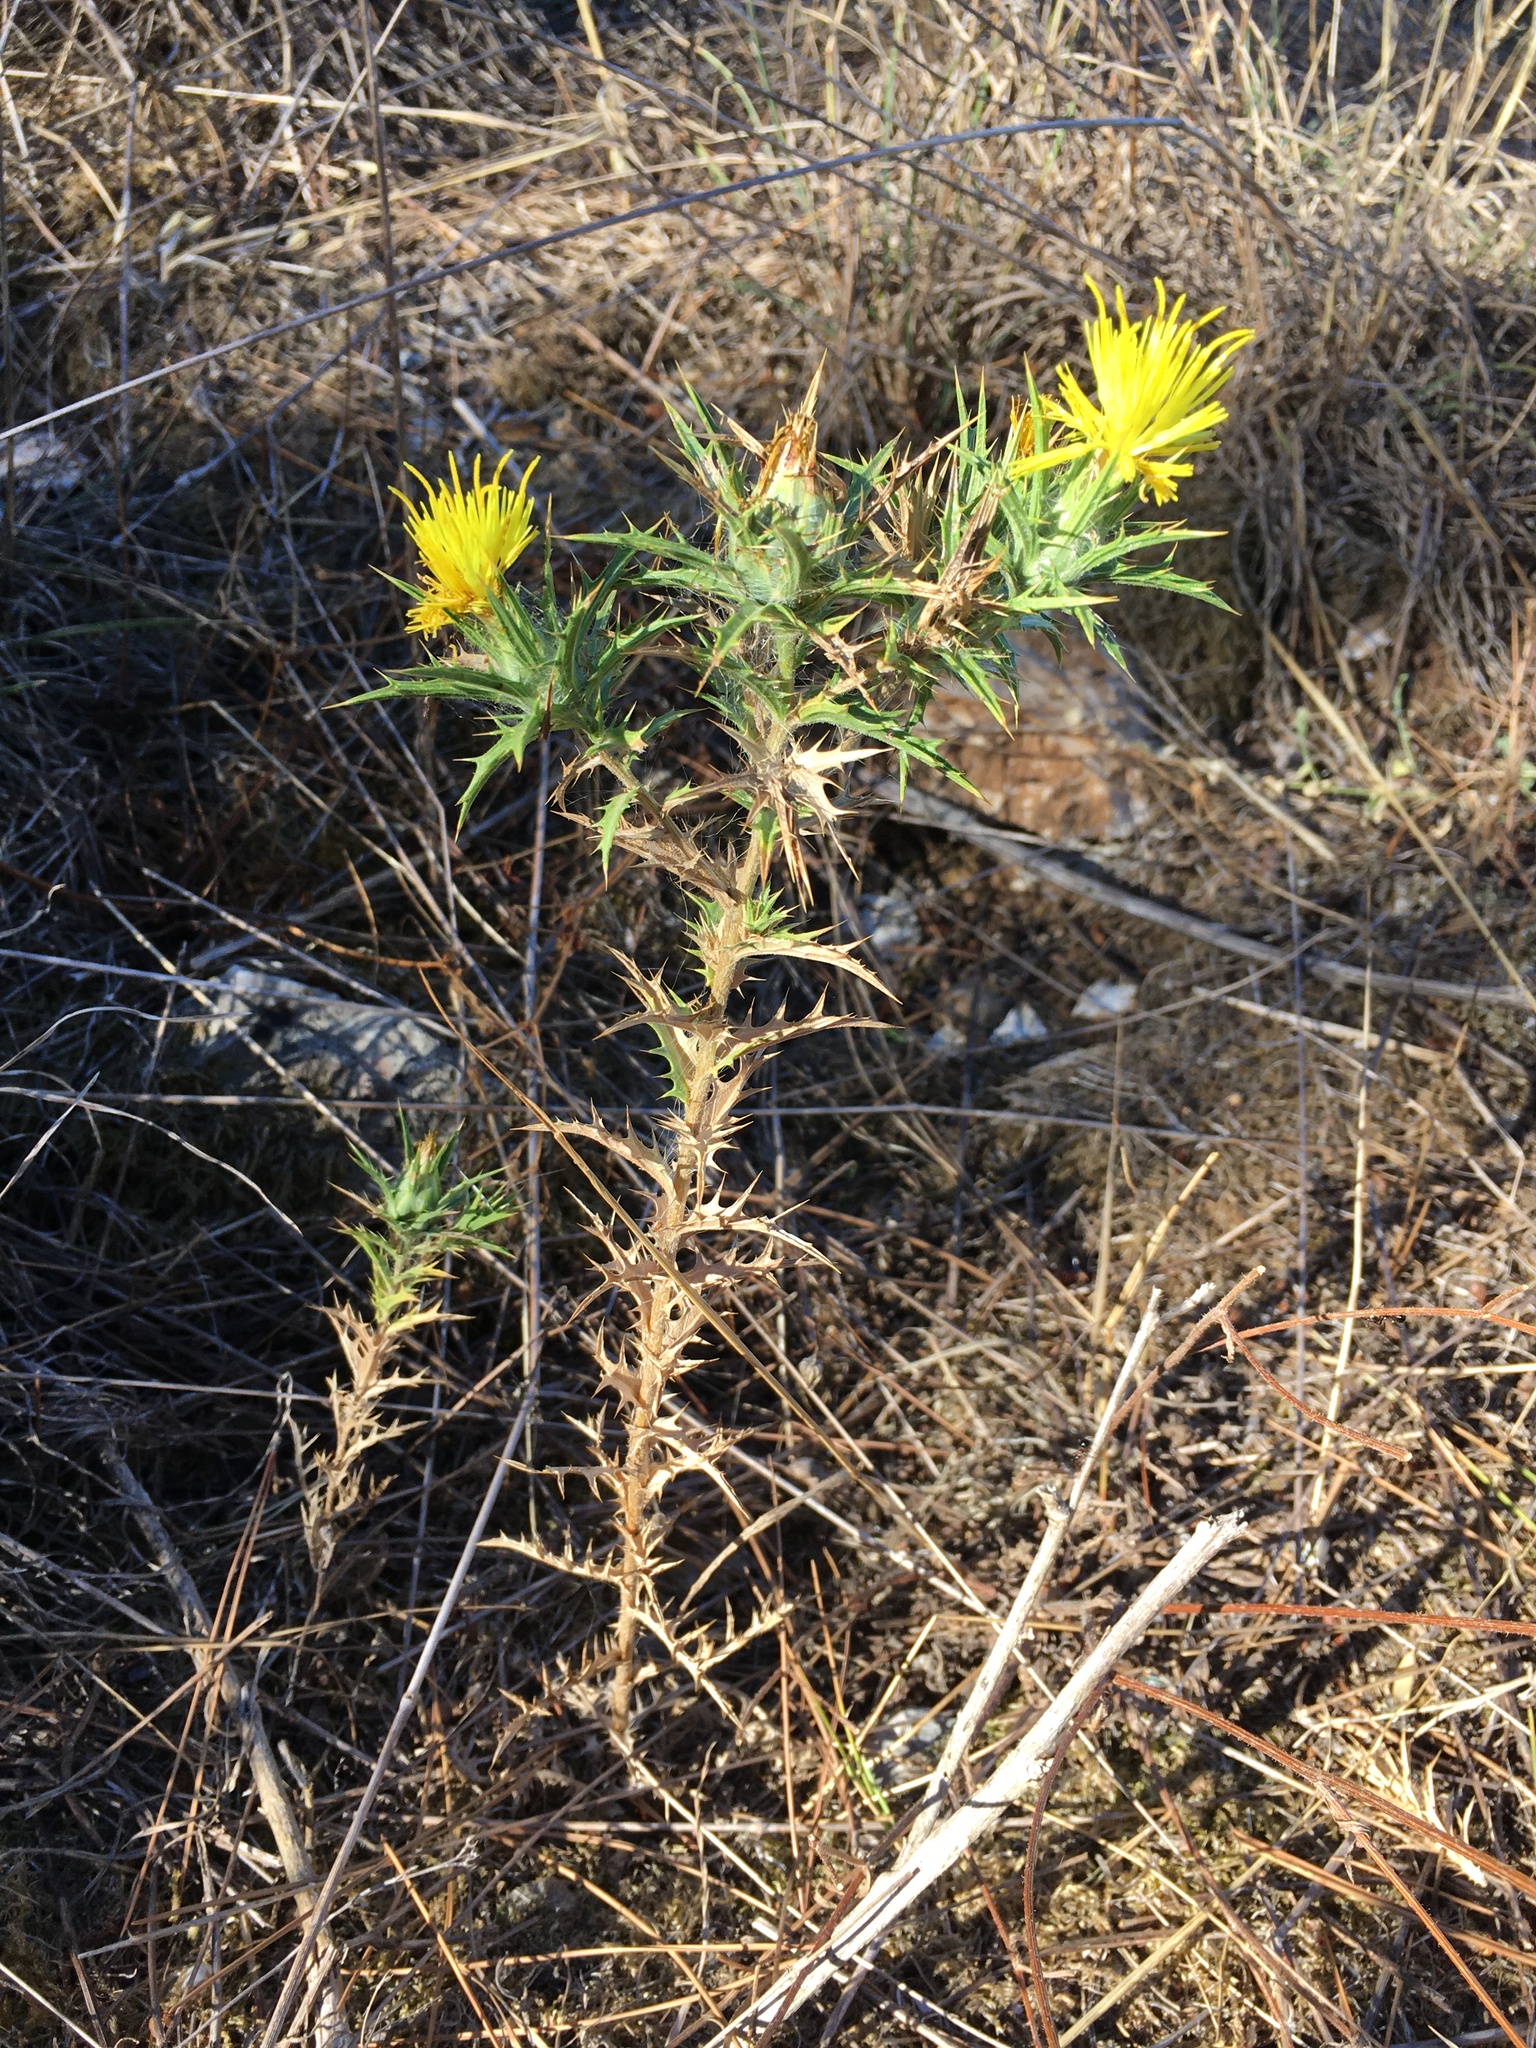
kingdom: Plantae
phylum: Tracheophyta
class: Magnoliopsida
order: Asterales
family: Asteraceae
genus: Carthamus
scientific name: Carthamus lanatus
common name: Downy safflower
